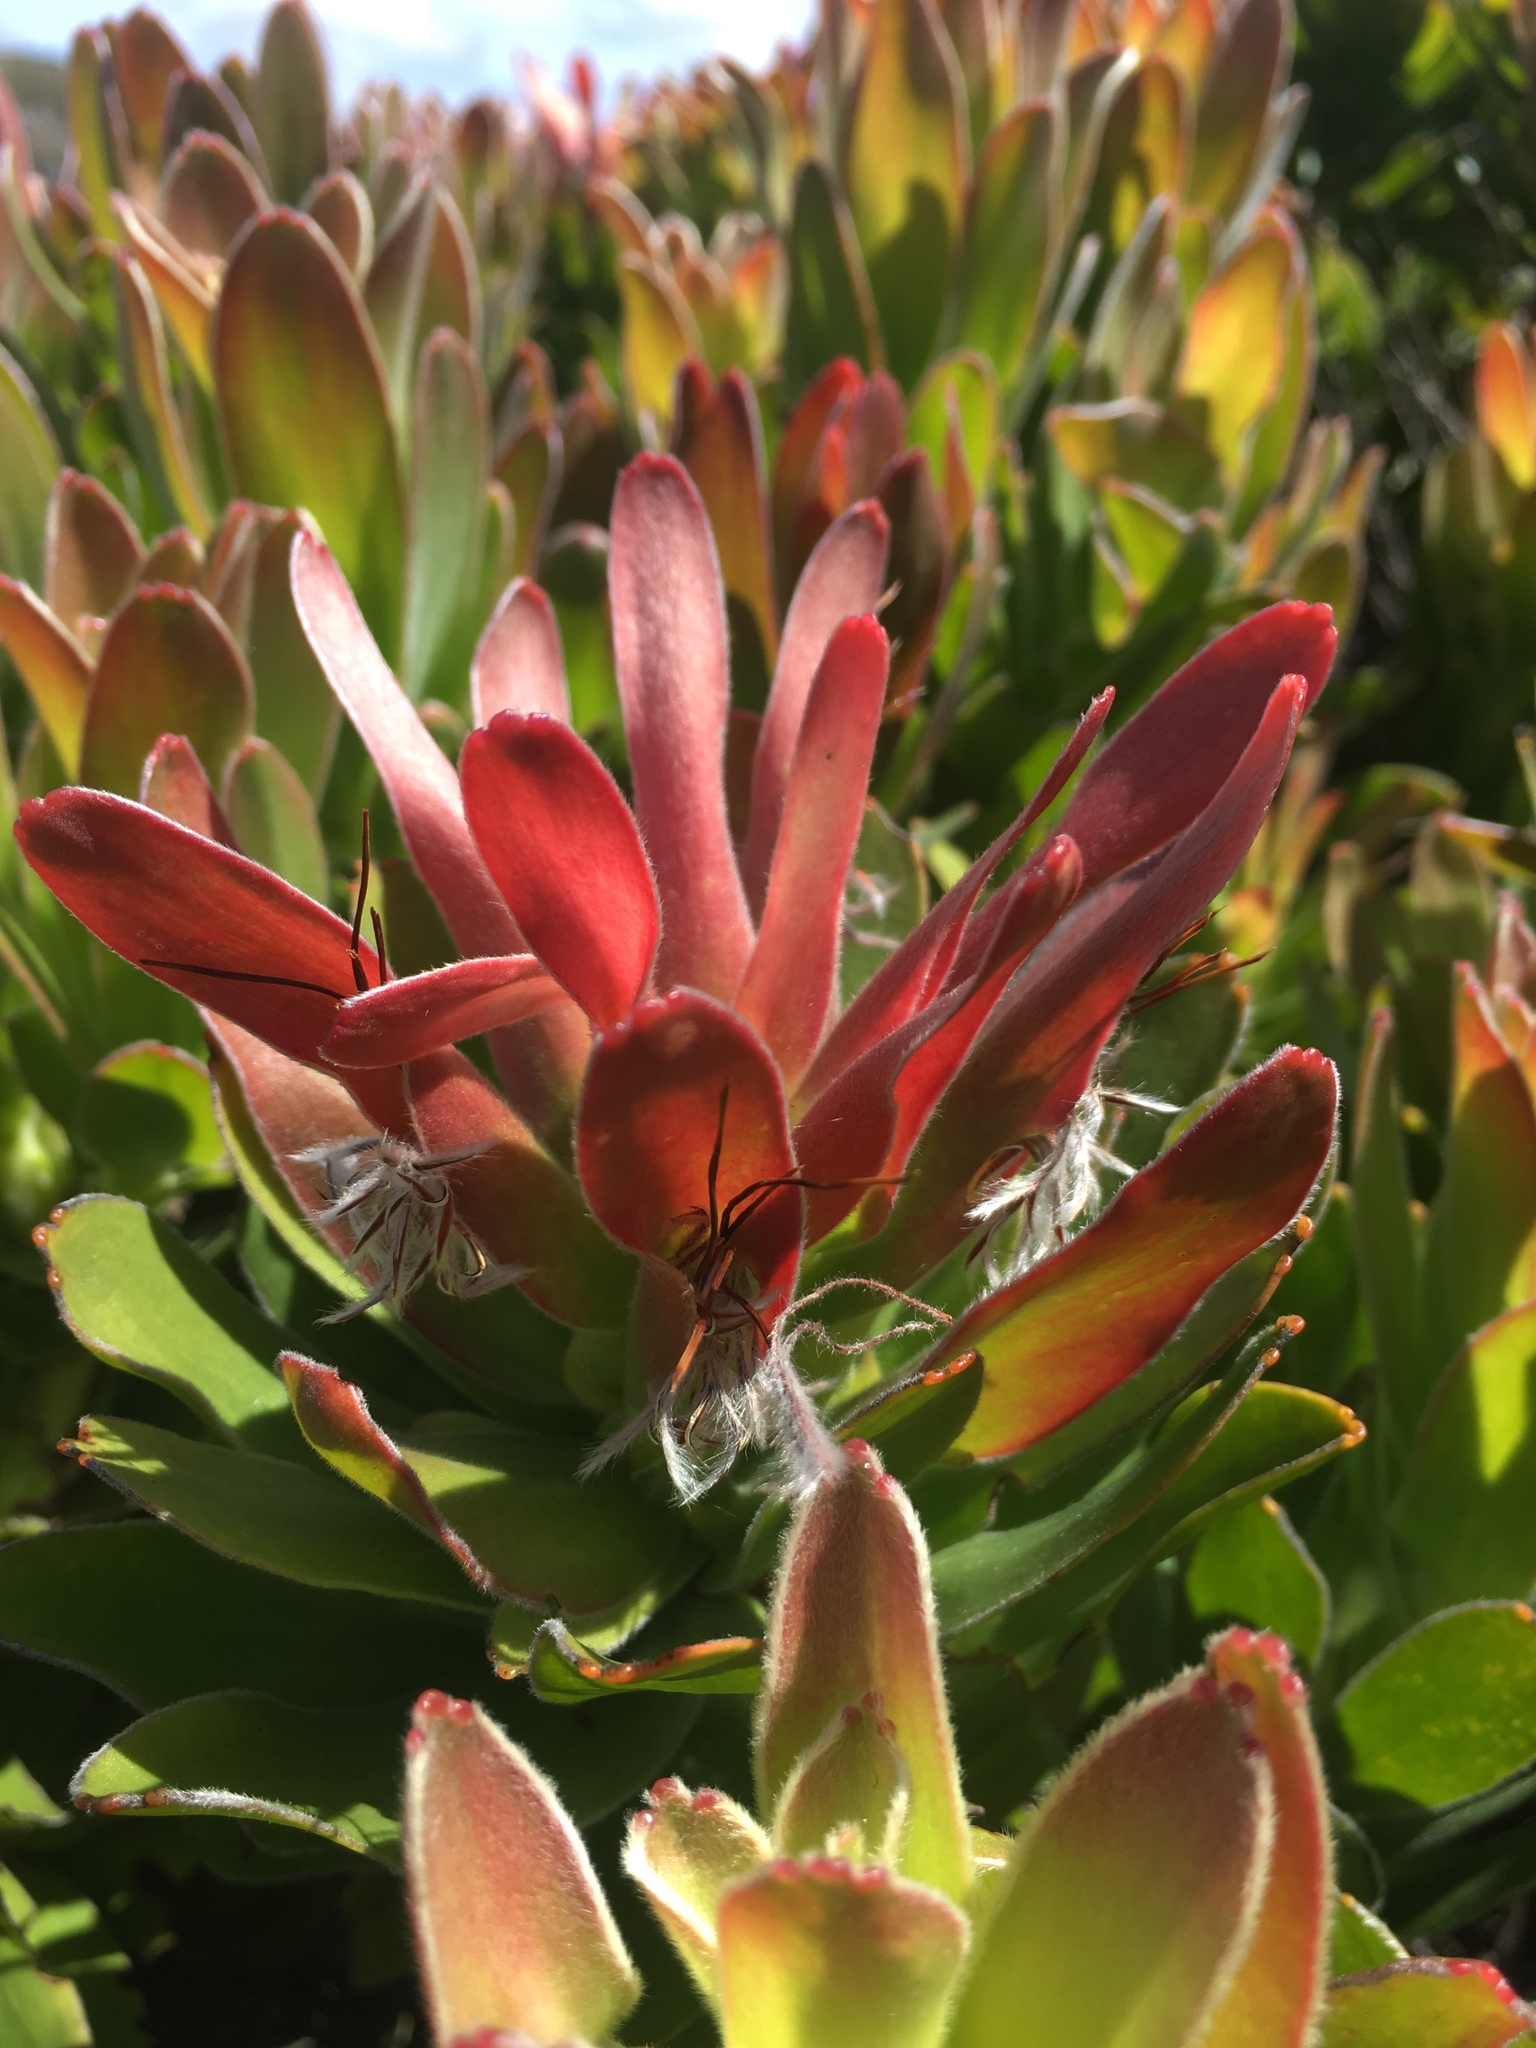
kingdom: Plantae
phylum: Tracheophyta
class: Magnoliopsida
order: Proteales
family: Proteaceae
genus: Mimetes
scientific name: Mimetes fimbriifolius
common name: Fringed bottlebrush
